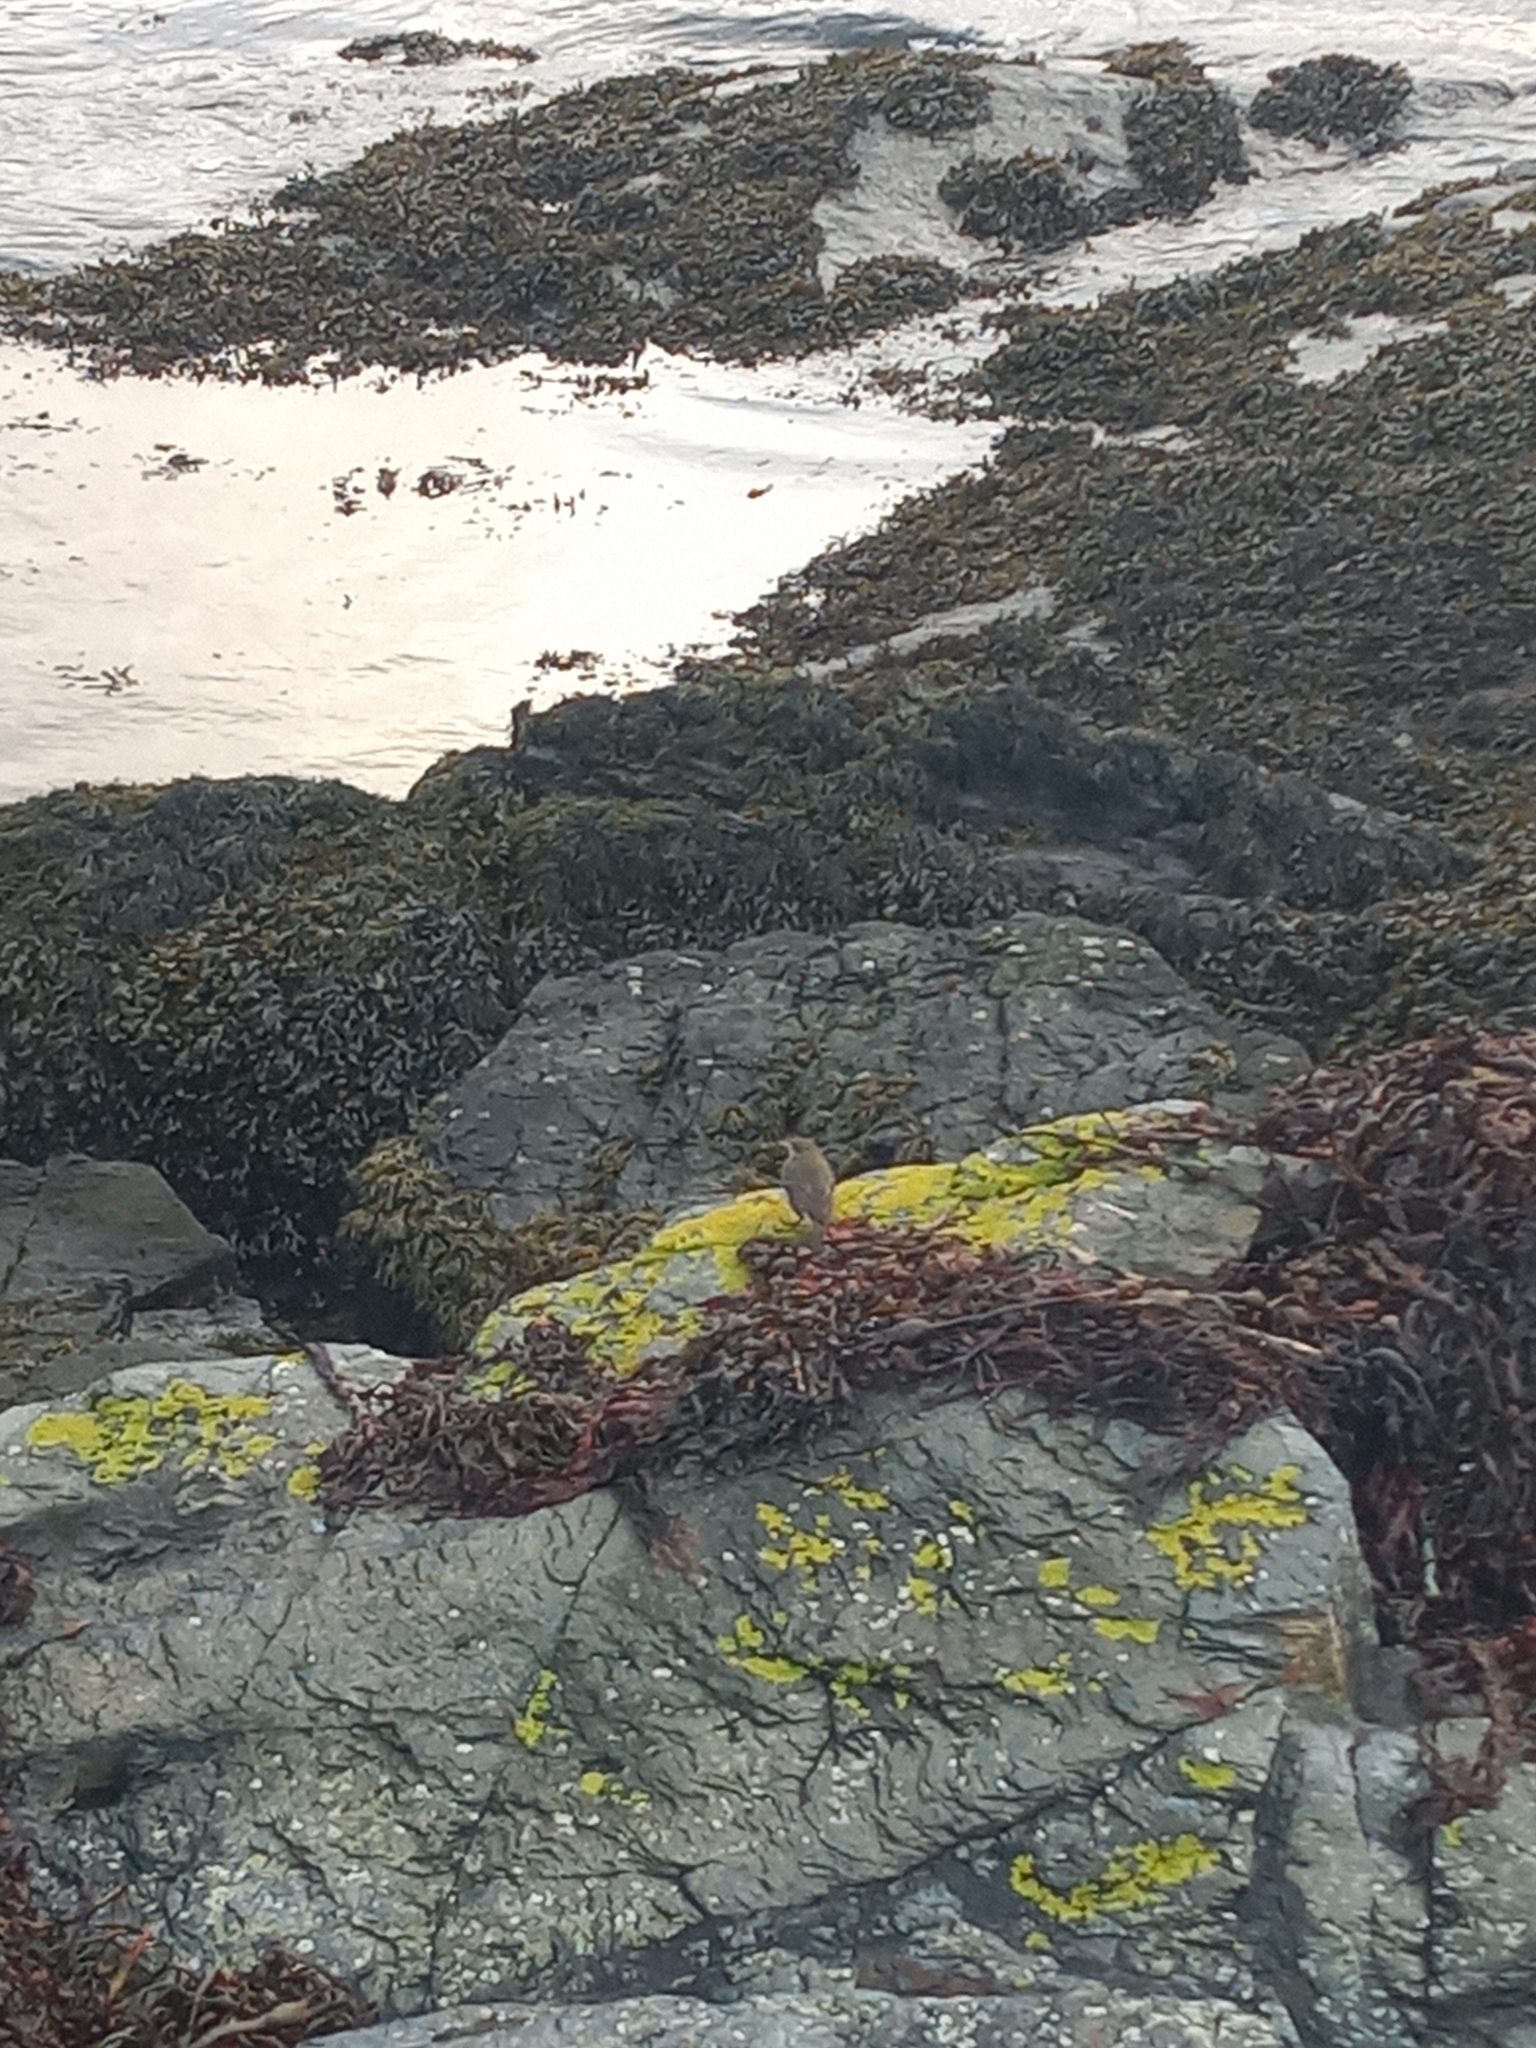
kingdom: Animalia
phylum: Chordata
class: Aves
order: Passeriformes
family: Motacillidae
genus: Anthus
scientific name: Anthus
